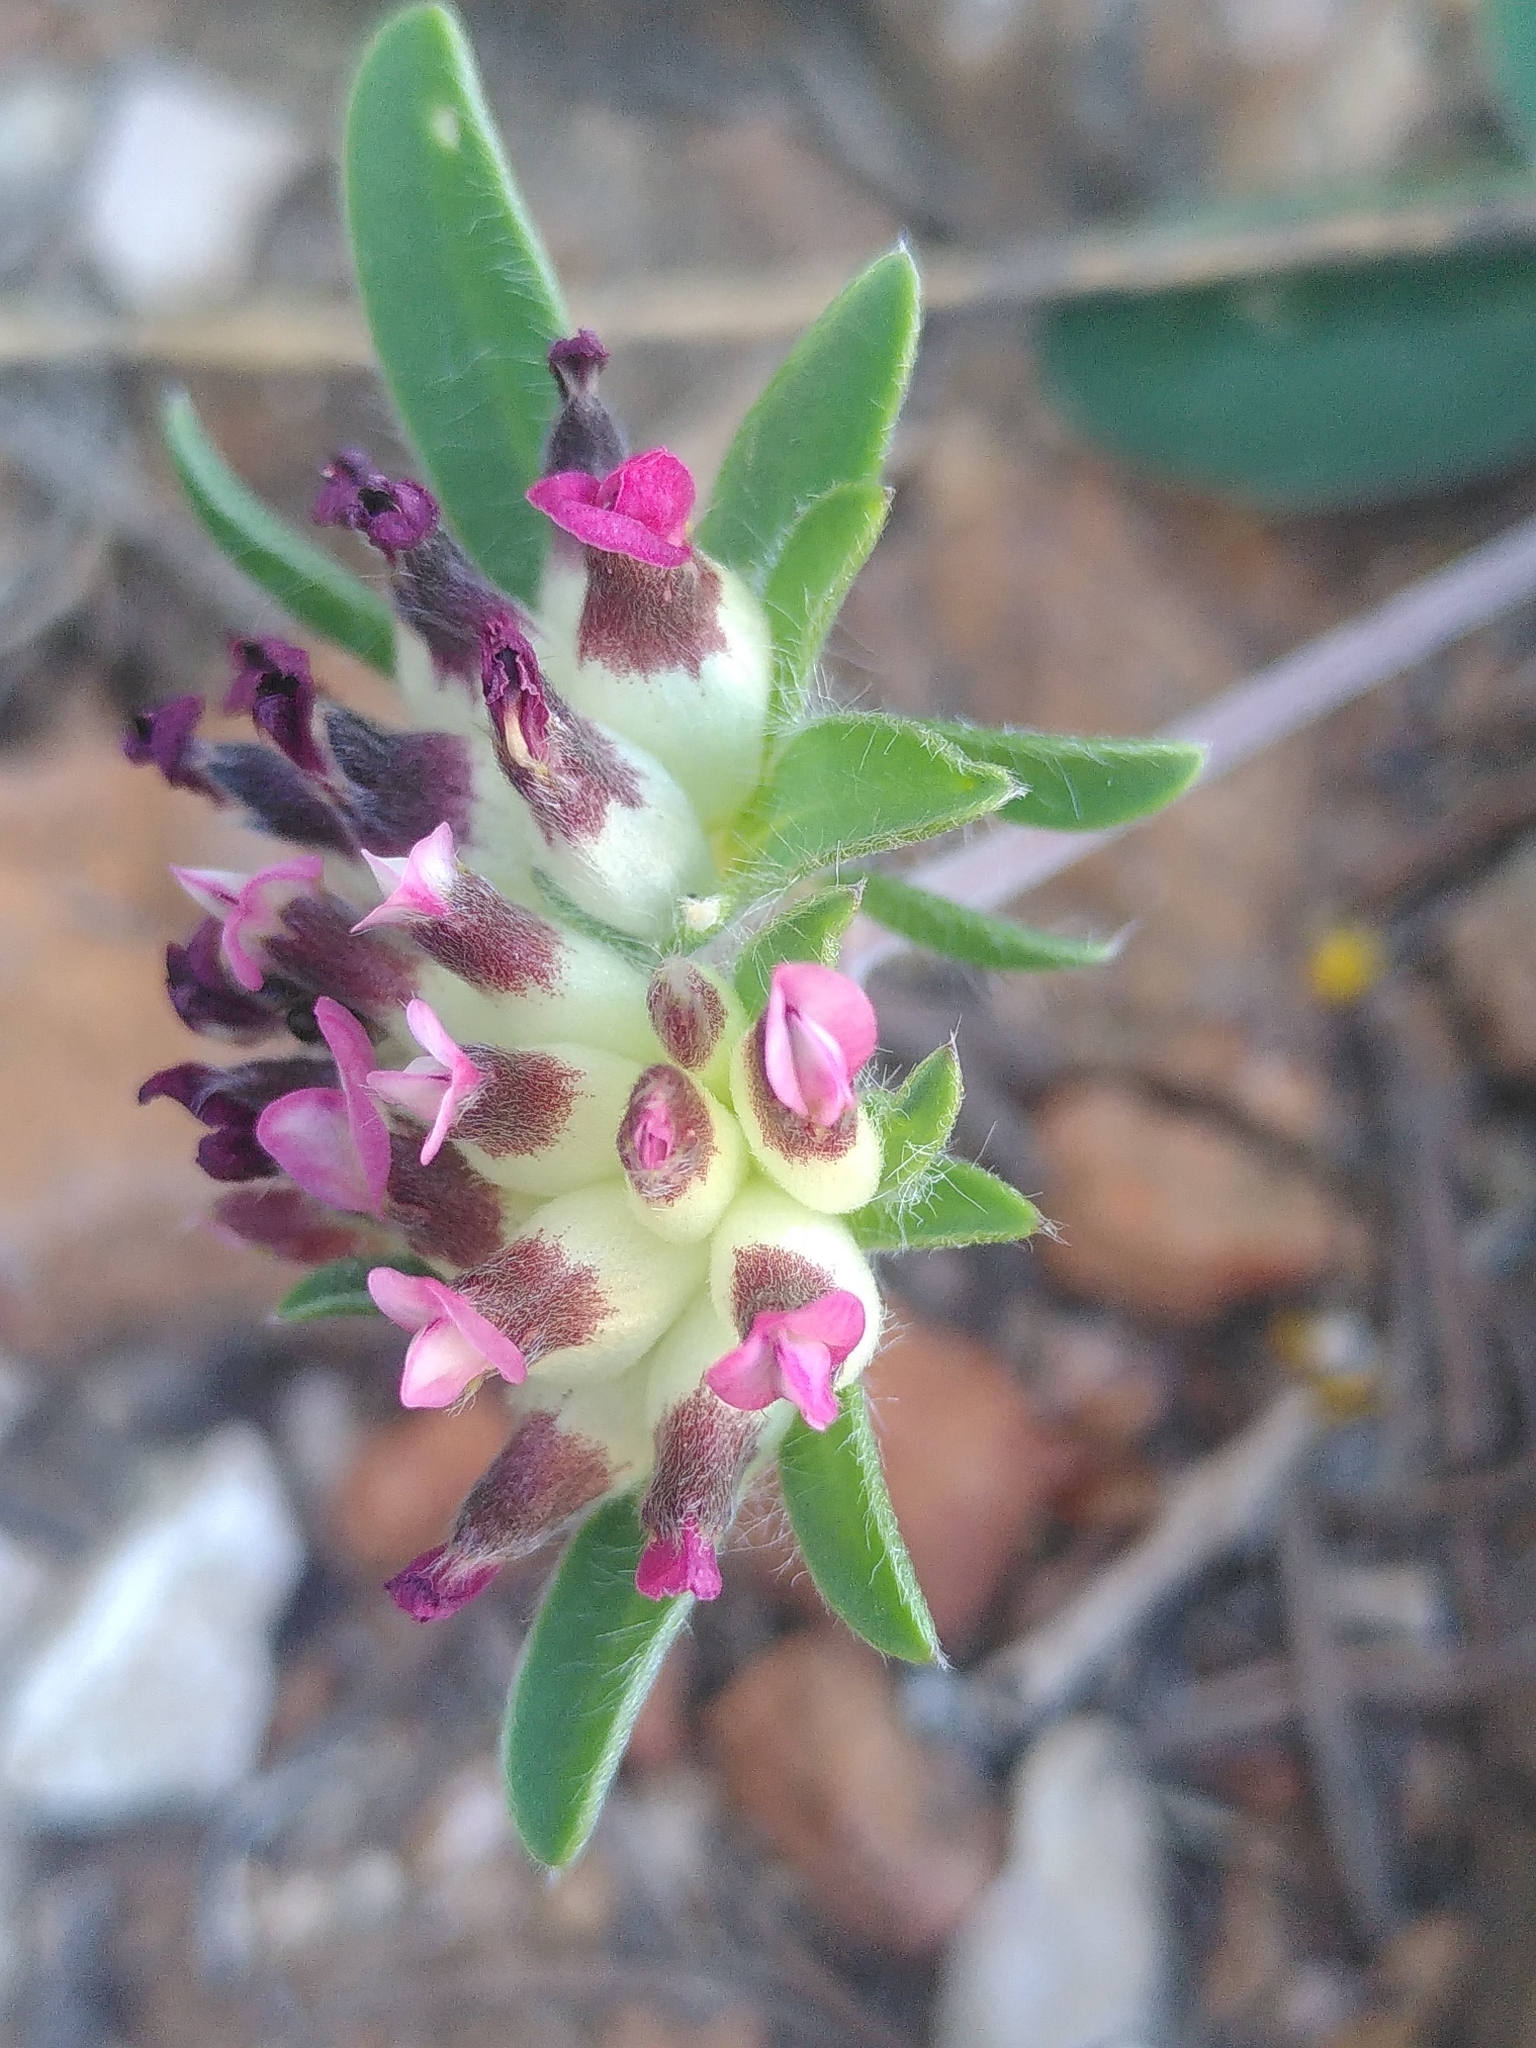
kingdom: Plantae
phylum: Tracheophyta
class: Magnoliopsida
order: Fabales
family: Fabaceae
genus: Anthyllis
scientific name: Anthyllis vulneraria
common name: Kidney vetch
